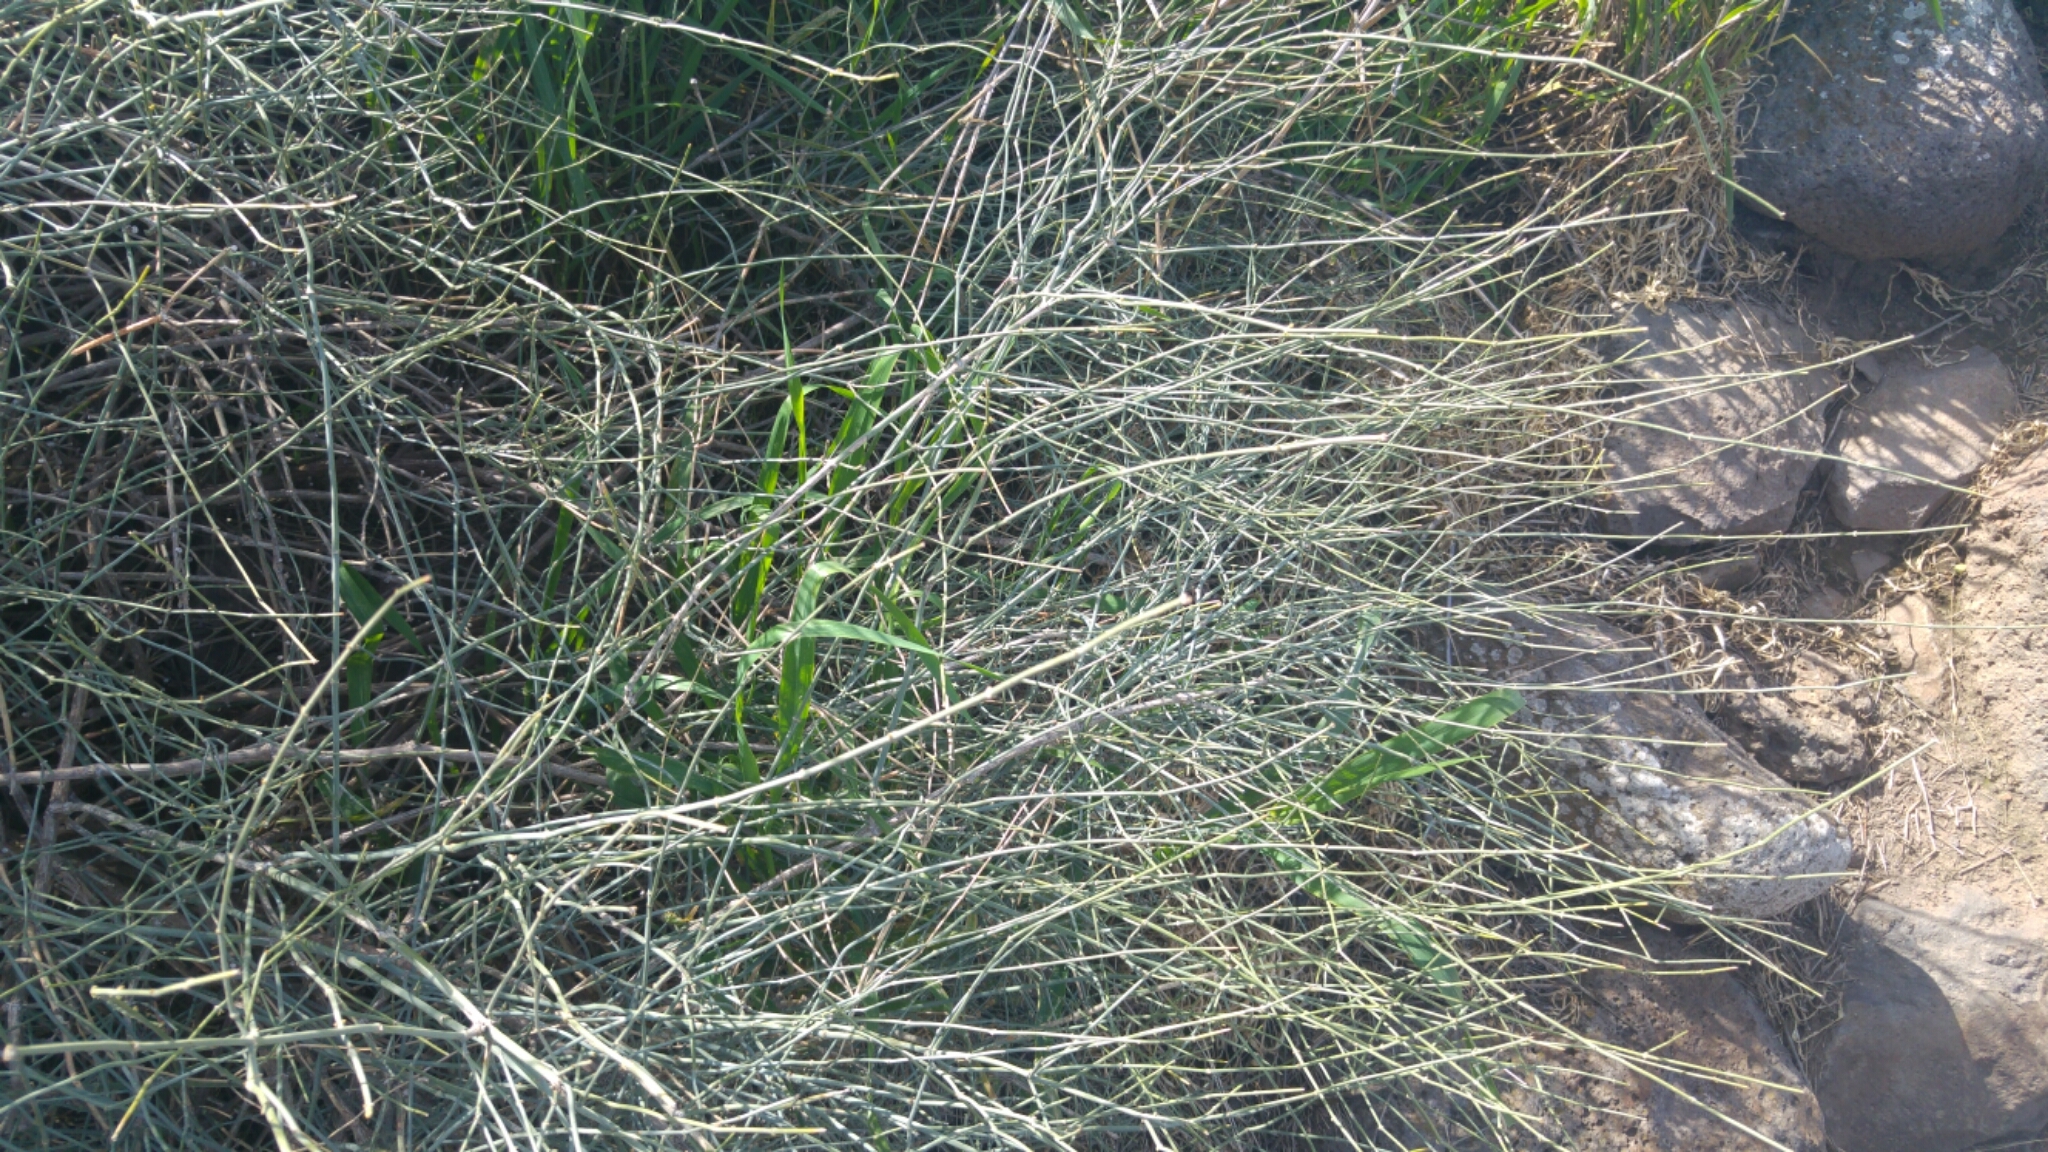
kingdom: Plantae
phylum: Tracheophyta
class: Magnoliopsida
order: Caryophyllales
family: Polygonaceae
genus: Polygonum
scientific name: Polygonum equisetiforme
